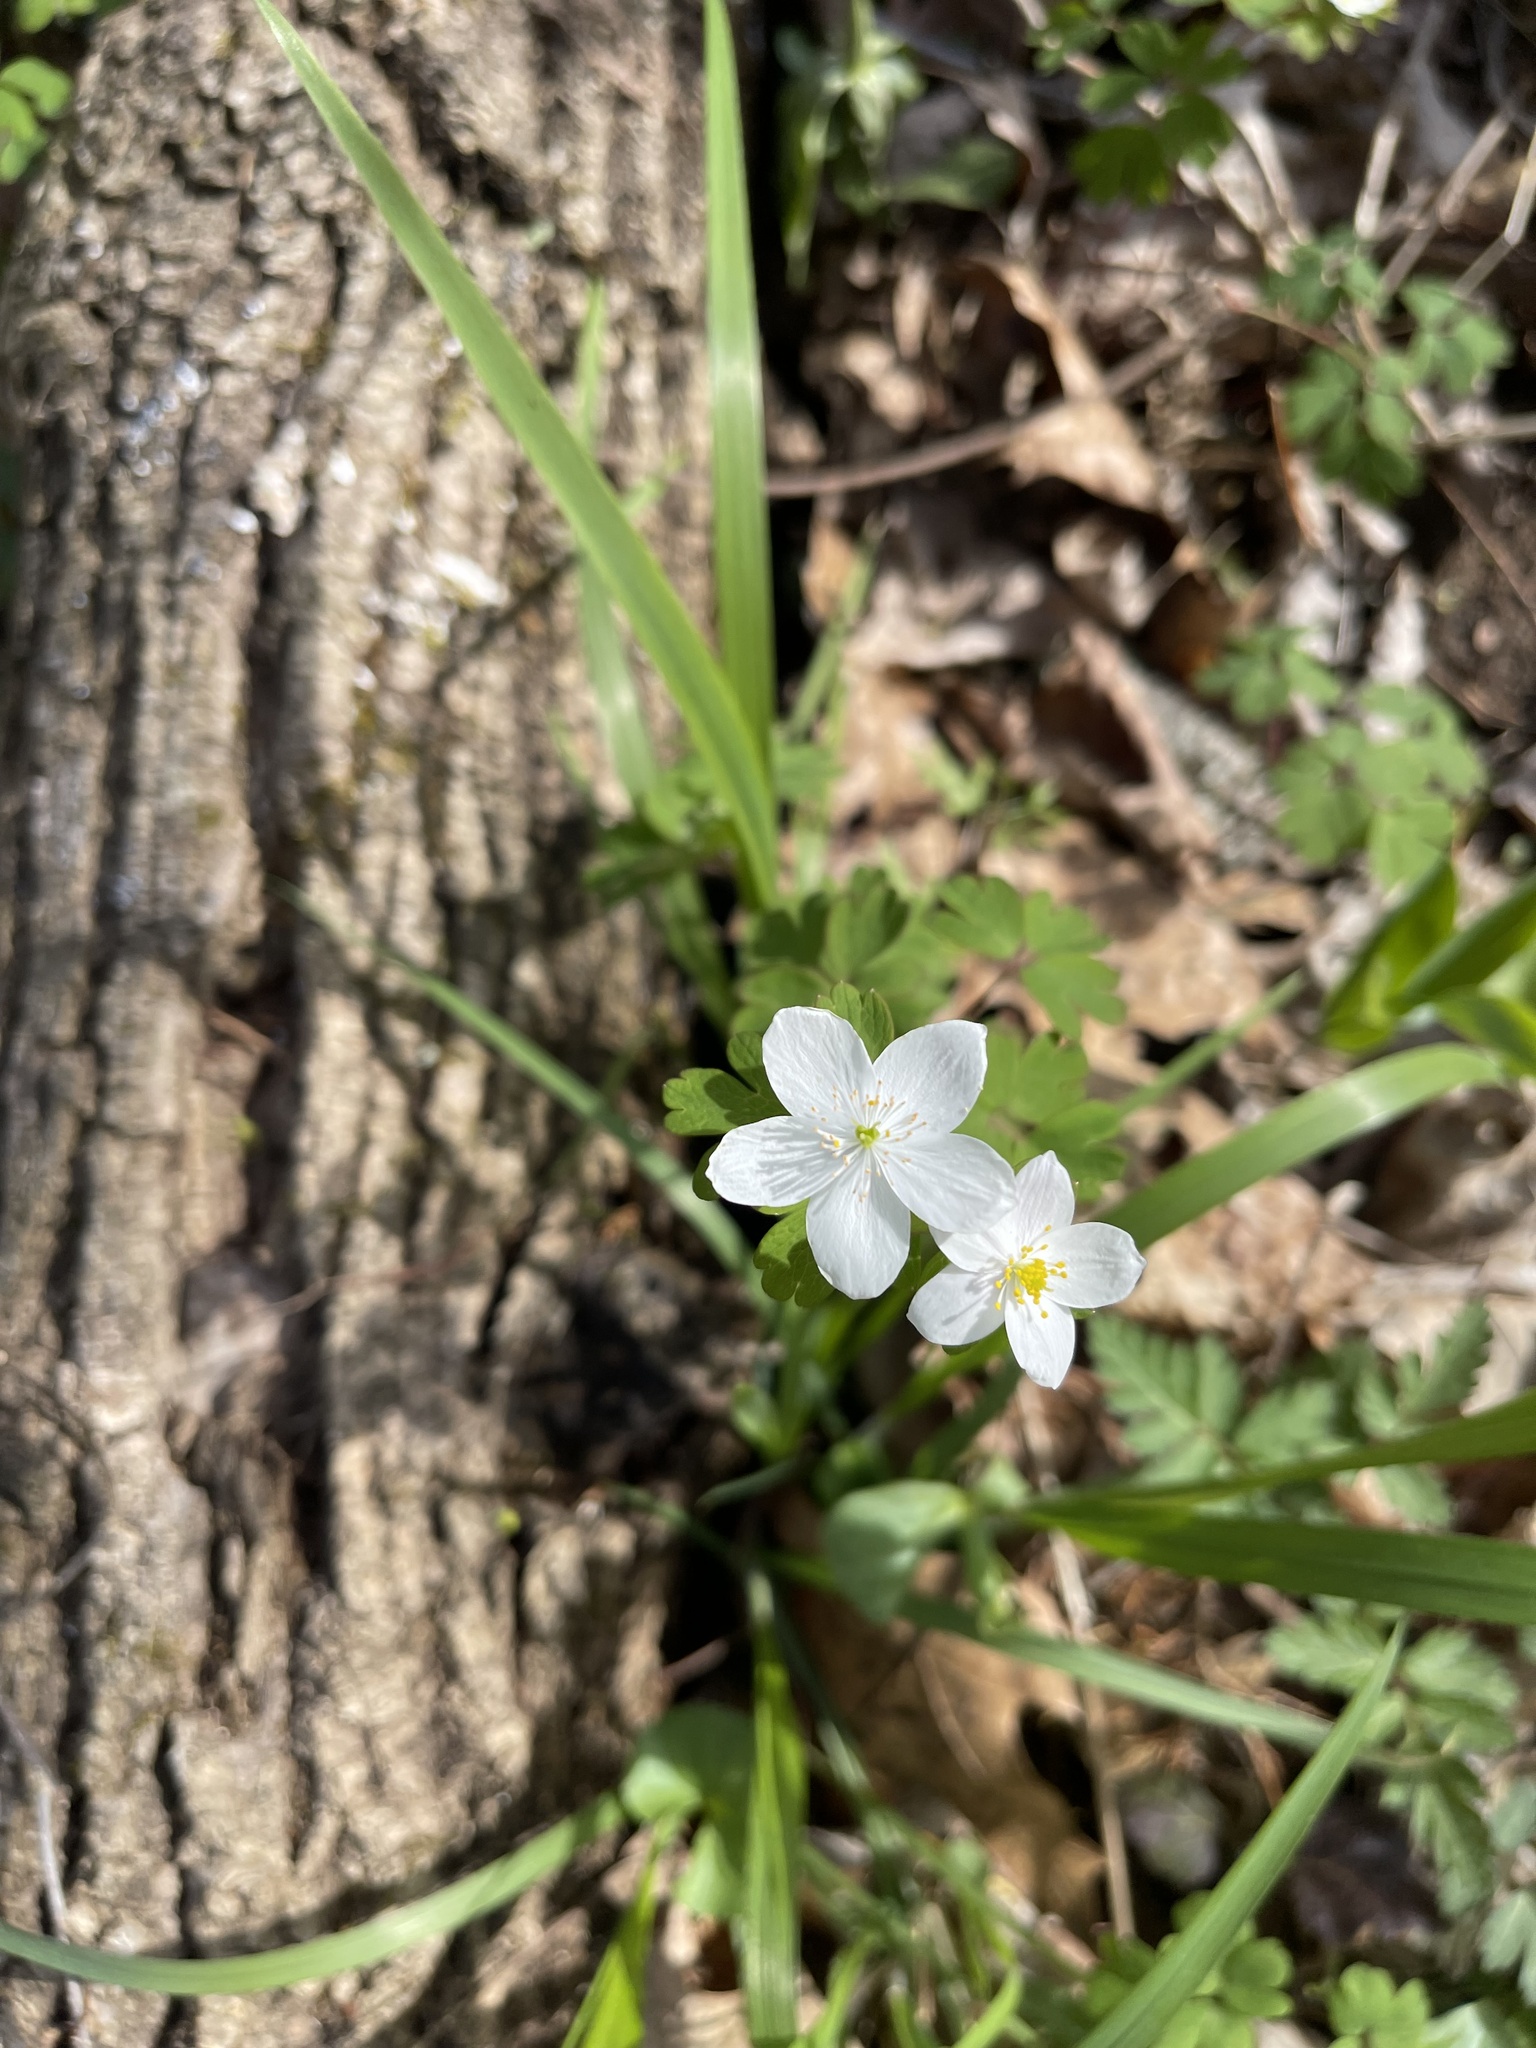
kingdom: Plantae
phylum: Tracheophyta
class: Magnoliopsida
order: Ranunculales
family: Ranunculaceae
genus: Enemion
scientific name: Enemion biternatum
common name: Eastern false rue-anemone
